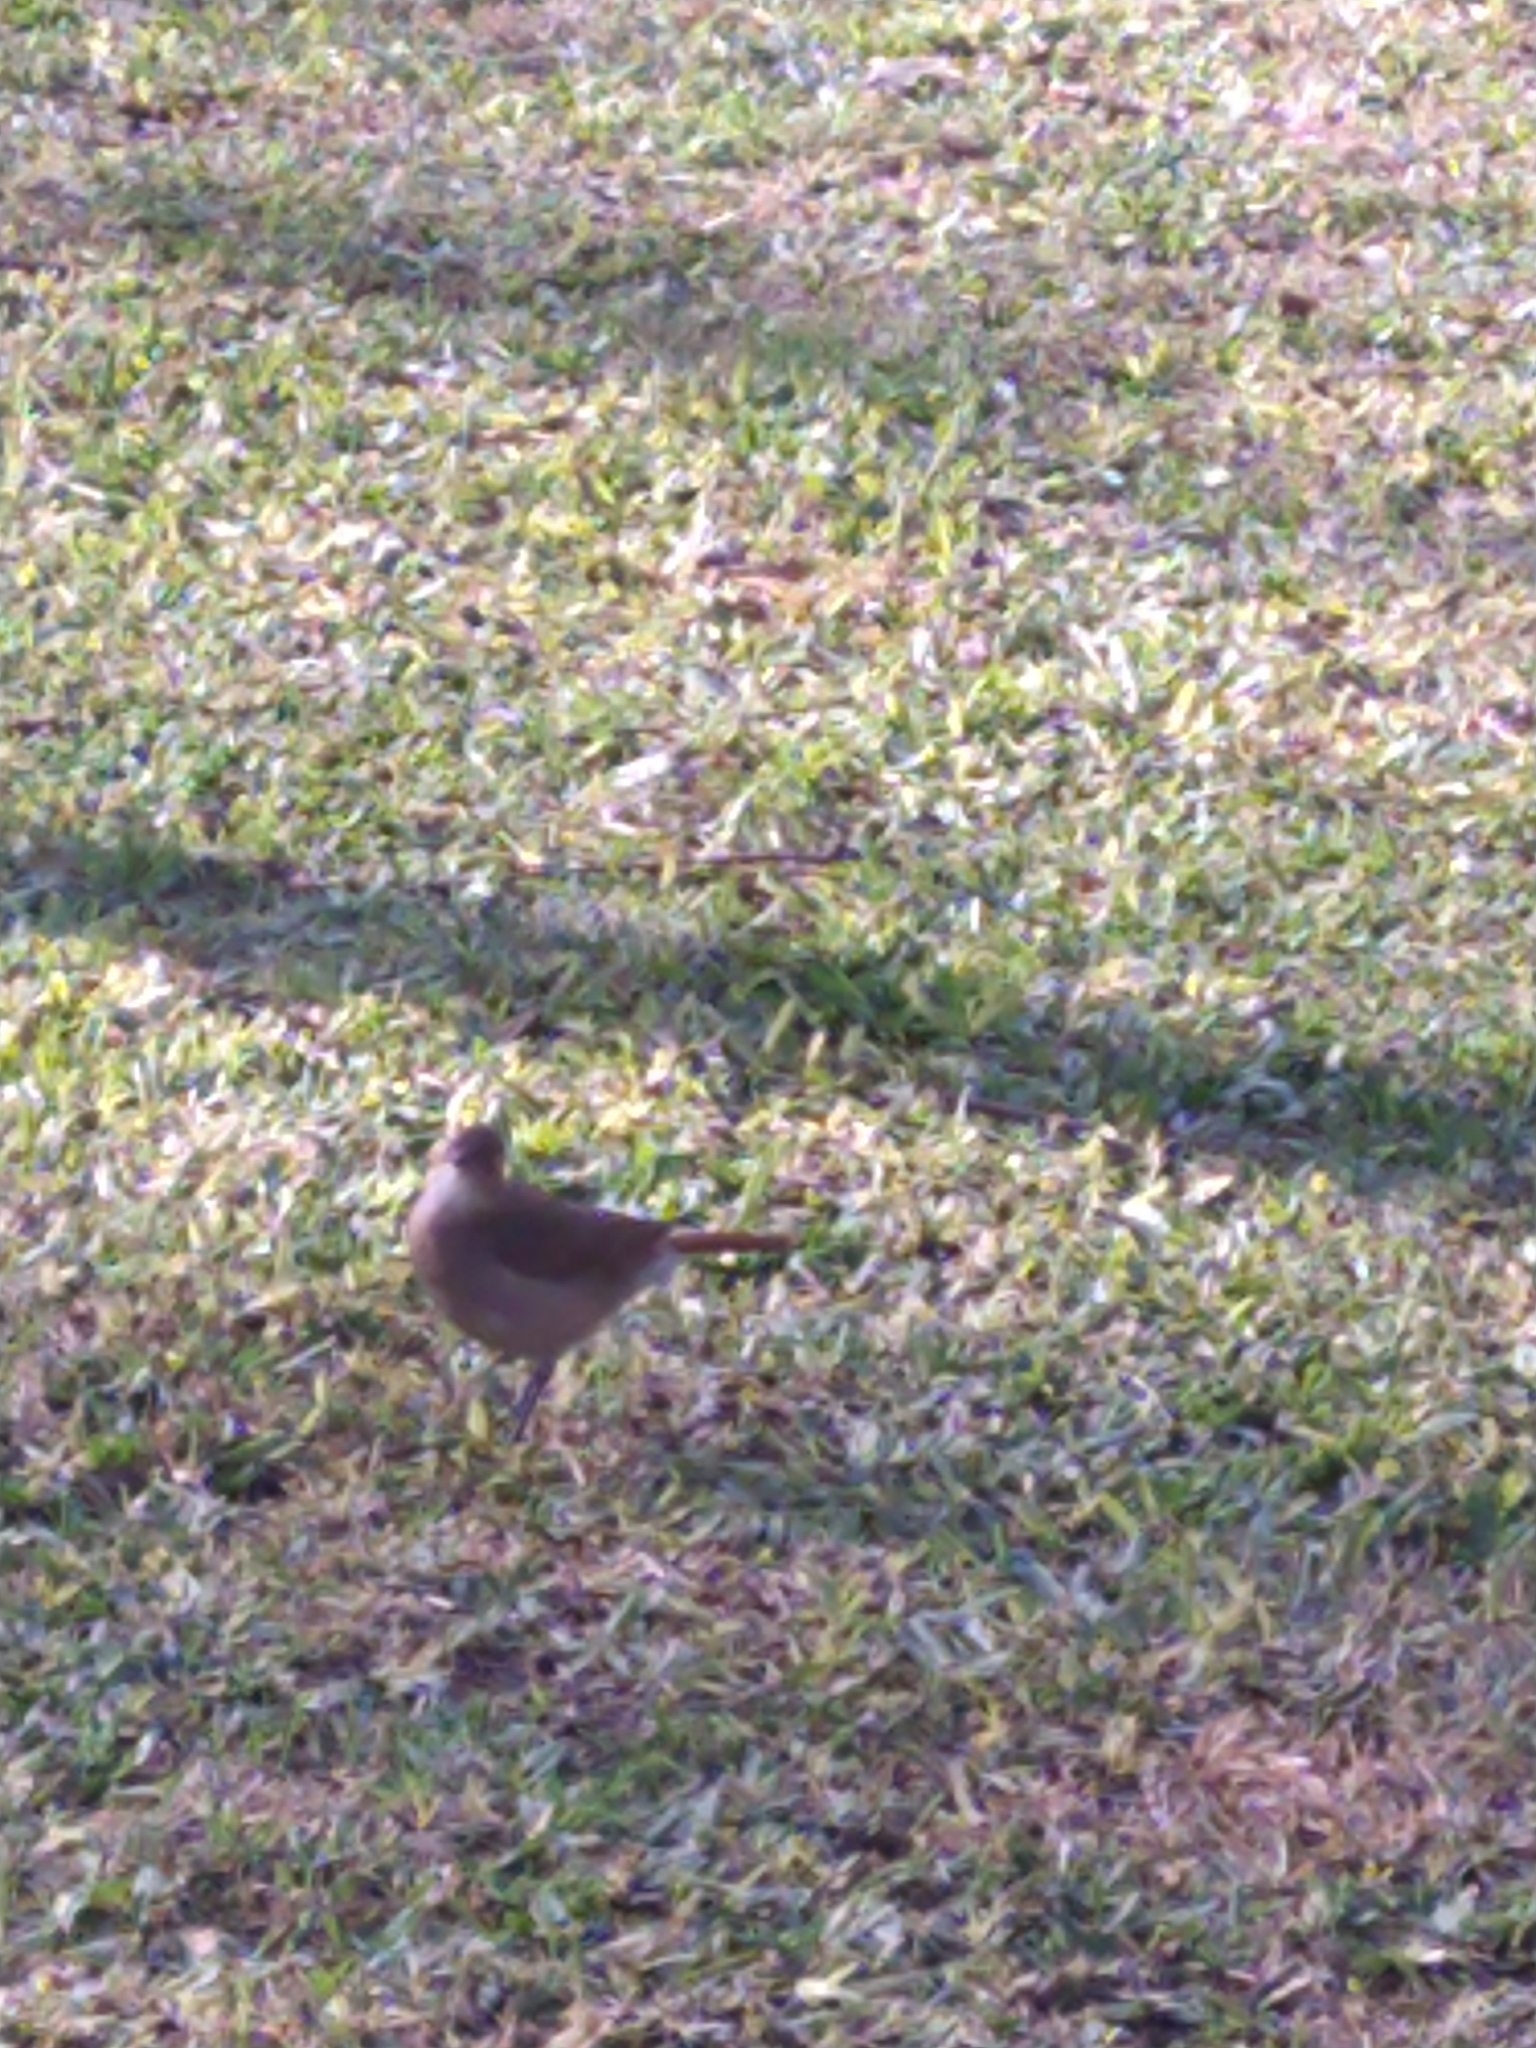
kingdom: Animalia
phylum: Chordata
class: Aves
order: Passeriformes
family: Furnariidae
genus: Furnarius
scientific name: Furnarius rufus
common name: Rufous hornero
